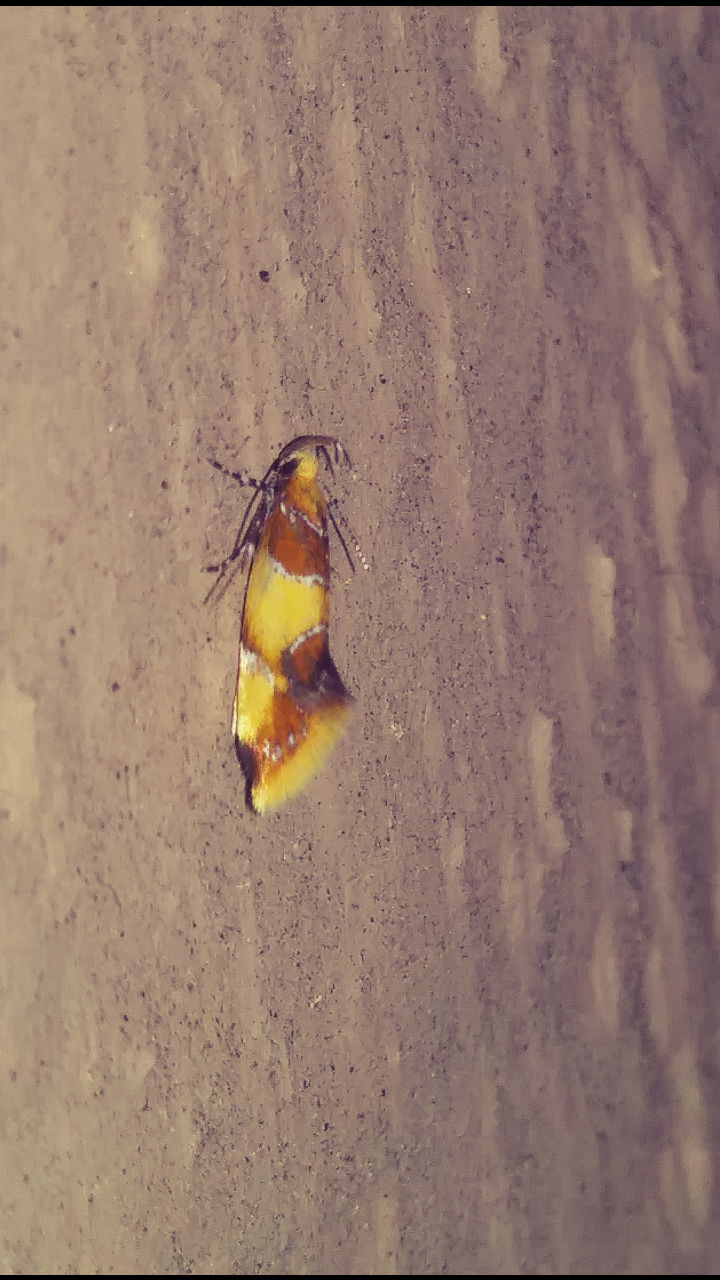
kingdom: Animalia
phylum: Arthropoda
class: Insecta
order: Lepidoptera
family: Oecophoridae
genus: Callima
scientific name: Callima argenticinctella
